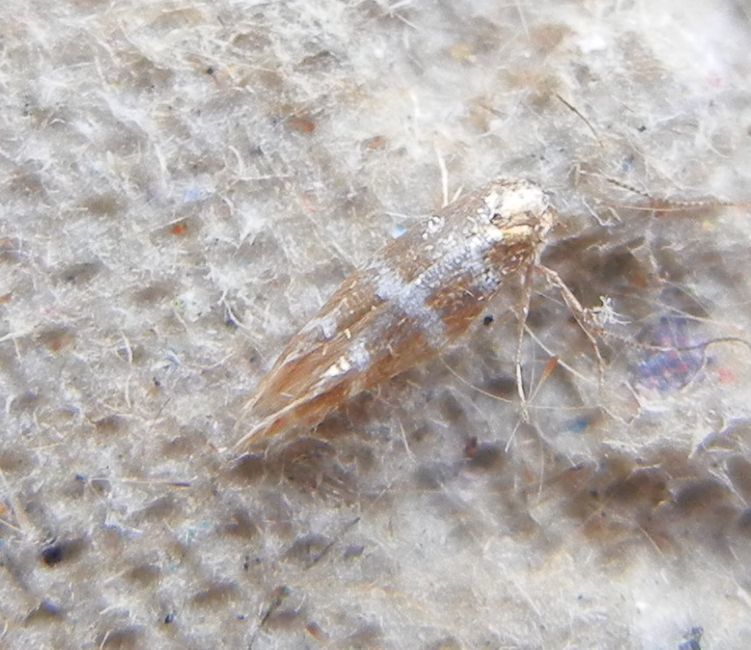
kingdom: Animalia
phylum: Arthropoda
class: Insecta
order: Lepidoptera
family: Argyresthiidae
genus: Argyresthia
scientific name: Argyresthia trifasciata
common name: Triple-barred argent
